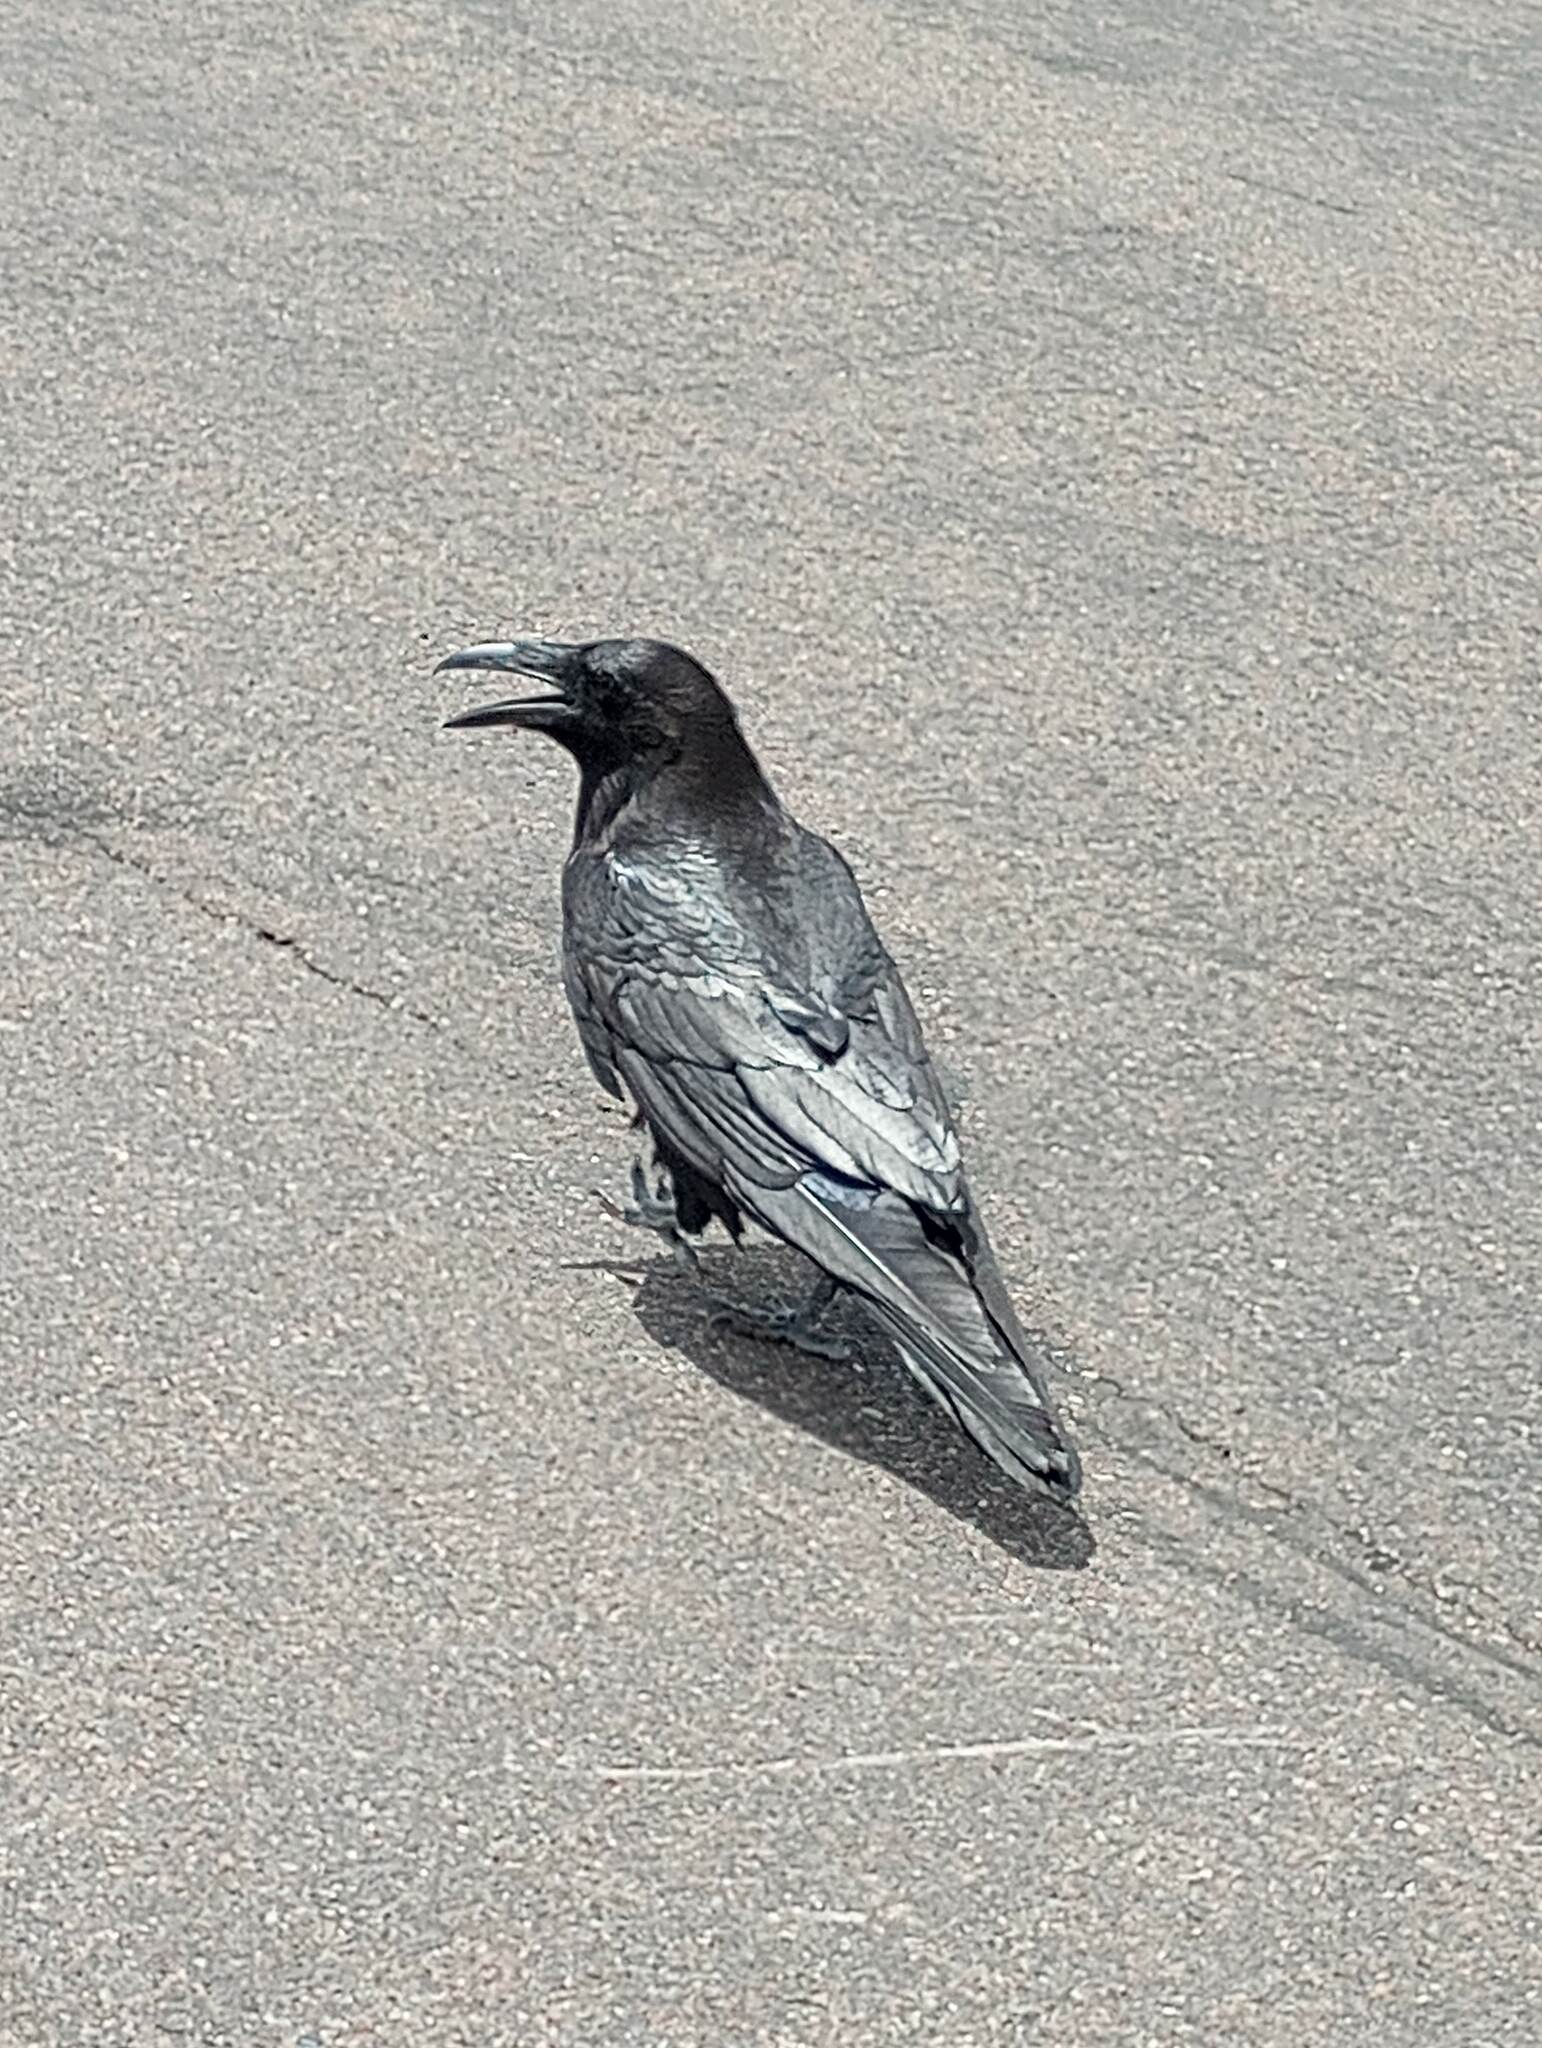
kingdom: Animalia
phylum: Chordata
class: Aves
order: Passeriformes
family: Corvidae
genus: Corvus
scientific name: Corvus corax
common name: Common raven
